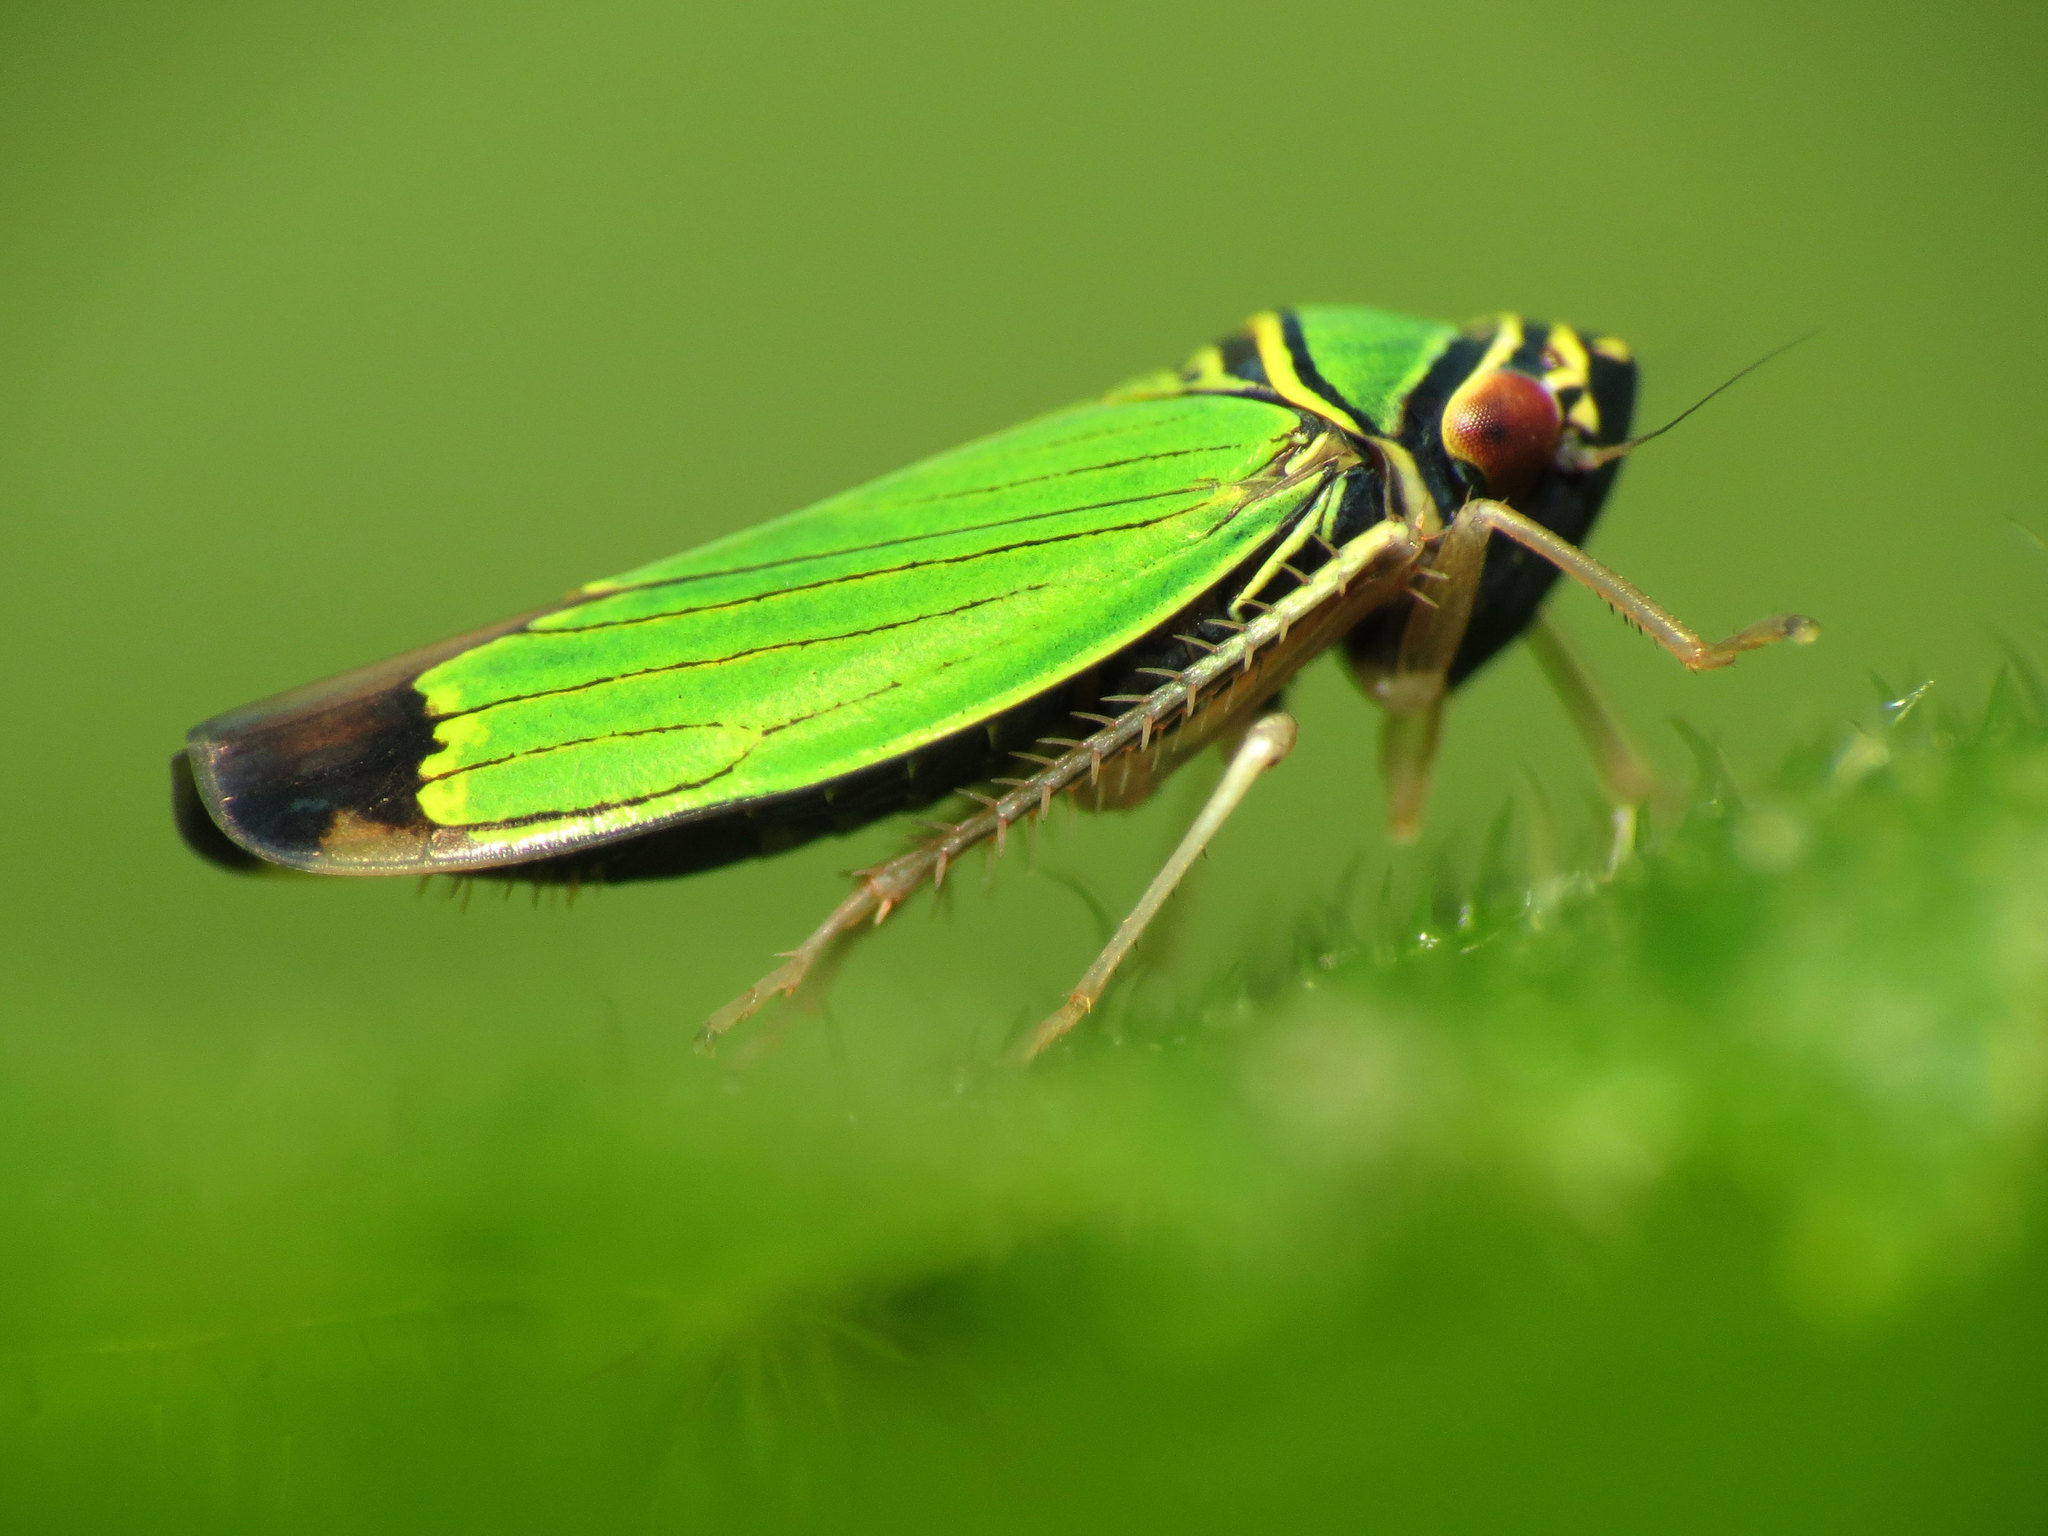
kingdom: Animalia
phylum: Arthropoda
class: Insecta
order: Hemiptera
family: Cicadellidae
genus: Tylozygus
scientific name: Tylozygus geometricus
